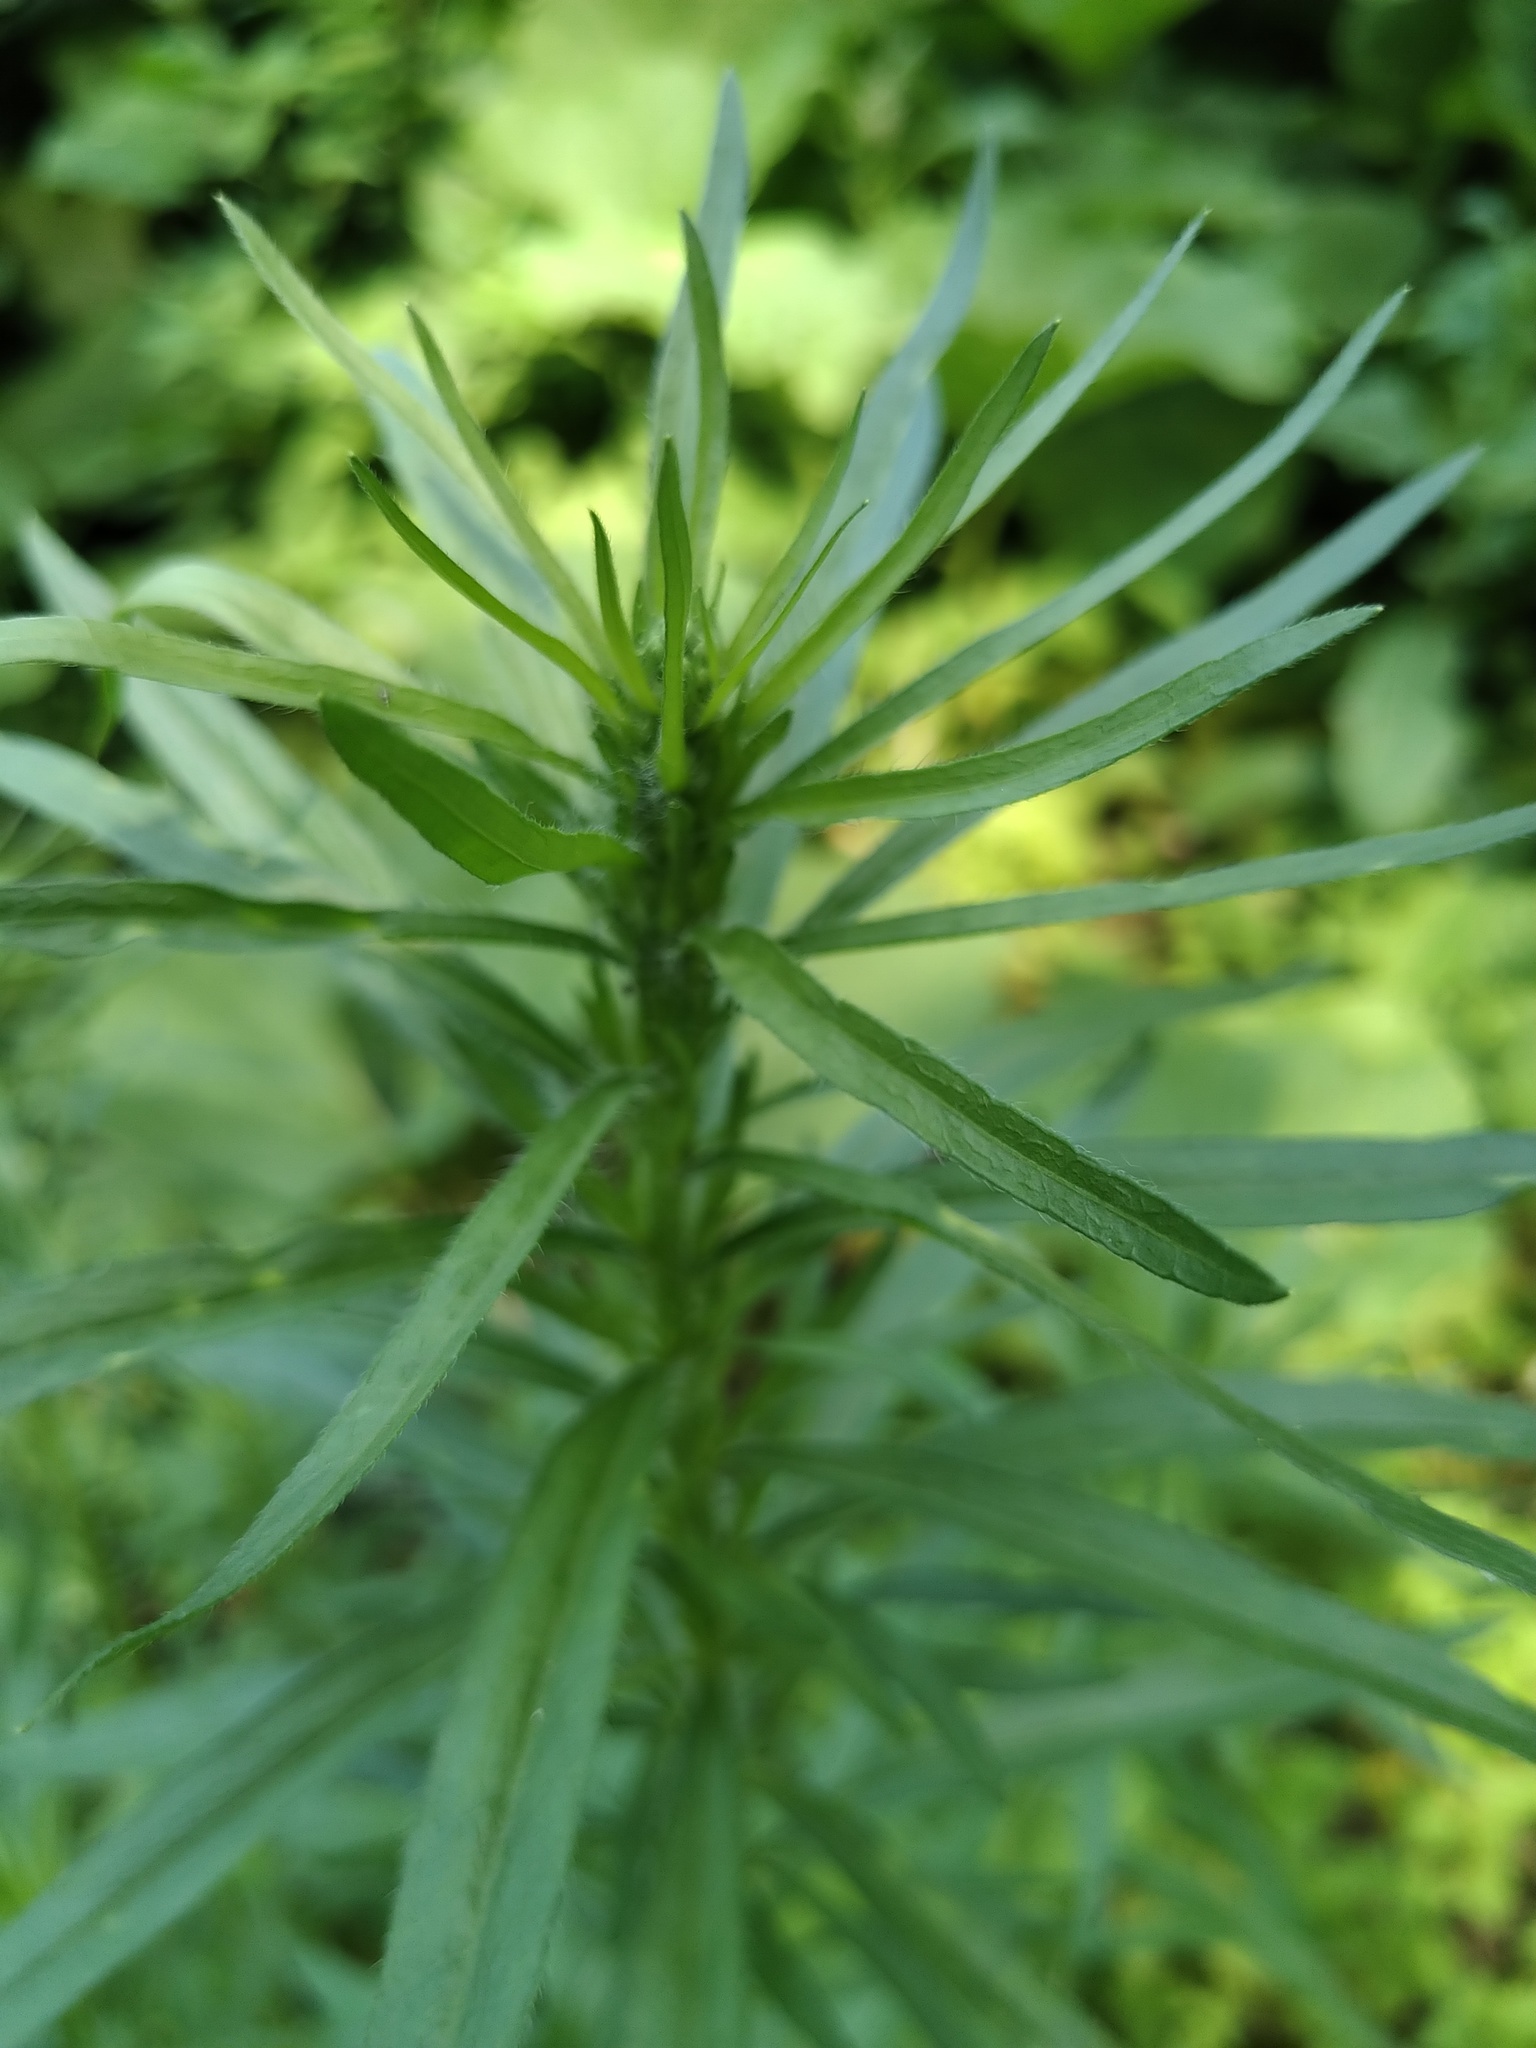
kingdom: Plantae
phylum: Tracheophyta
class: Magnoliopsida
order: Asterales
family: Asteraceae
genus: Erigeron
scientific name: Erigeron canadensis
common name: Canadian fleabane
